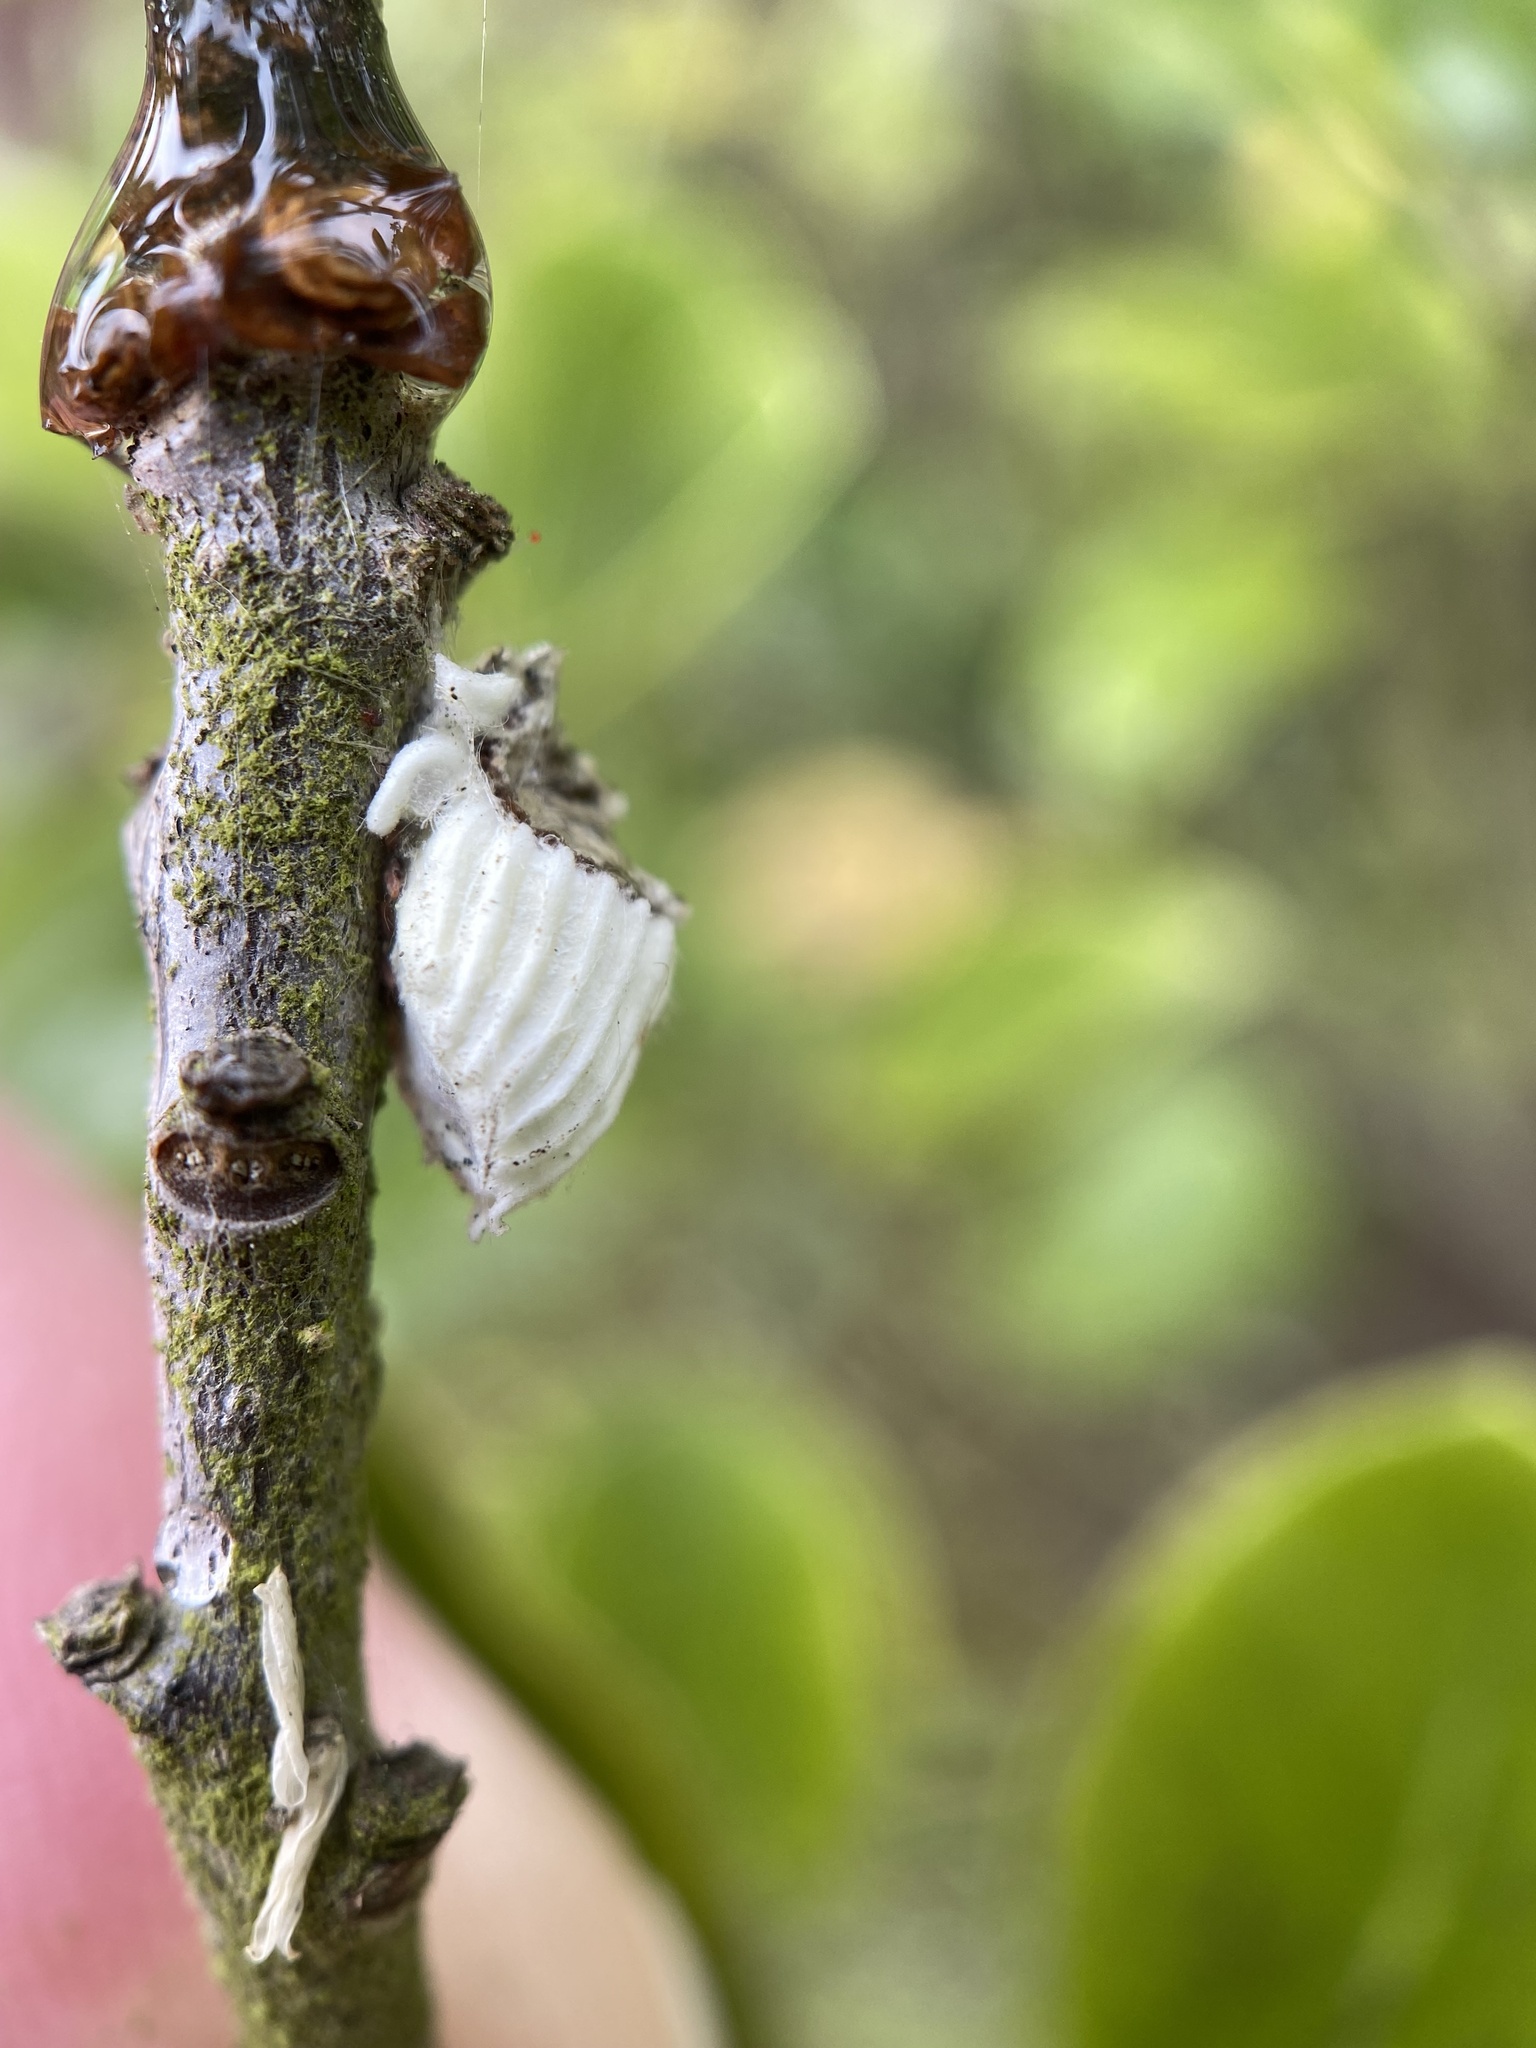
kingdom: Animalia
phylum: Arthropoda
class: Insecta
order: Hemiptera
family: Margarodidae
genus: Icerya
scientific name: Icerya purchasi
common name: Cottony cushion scale
